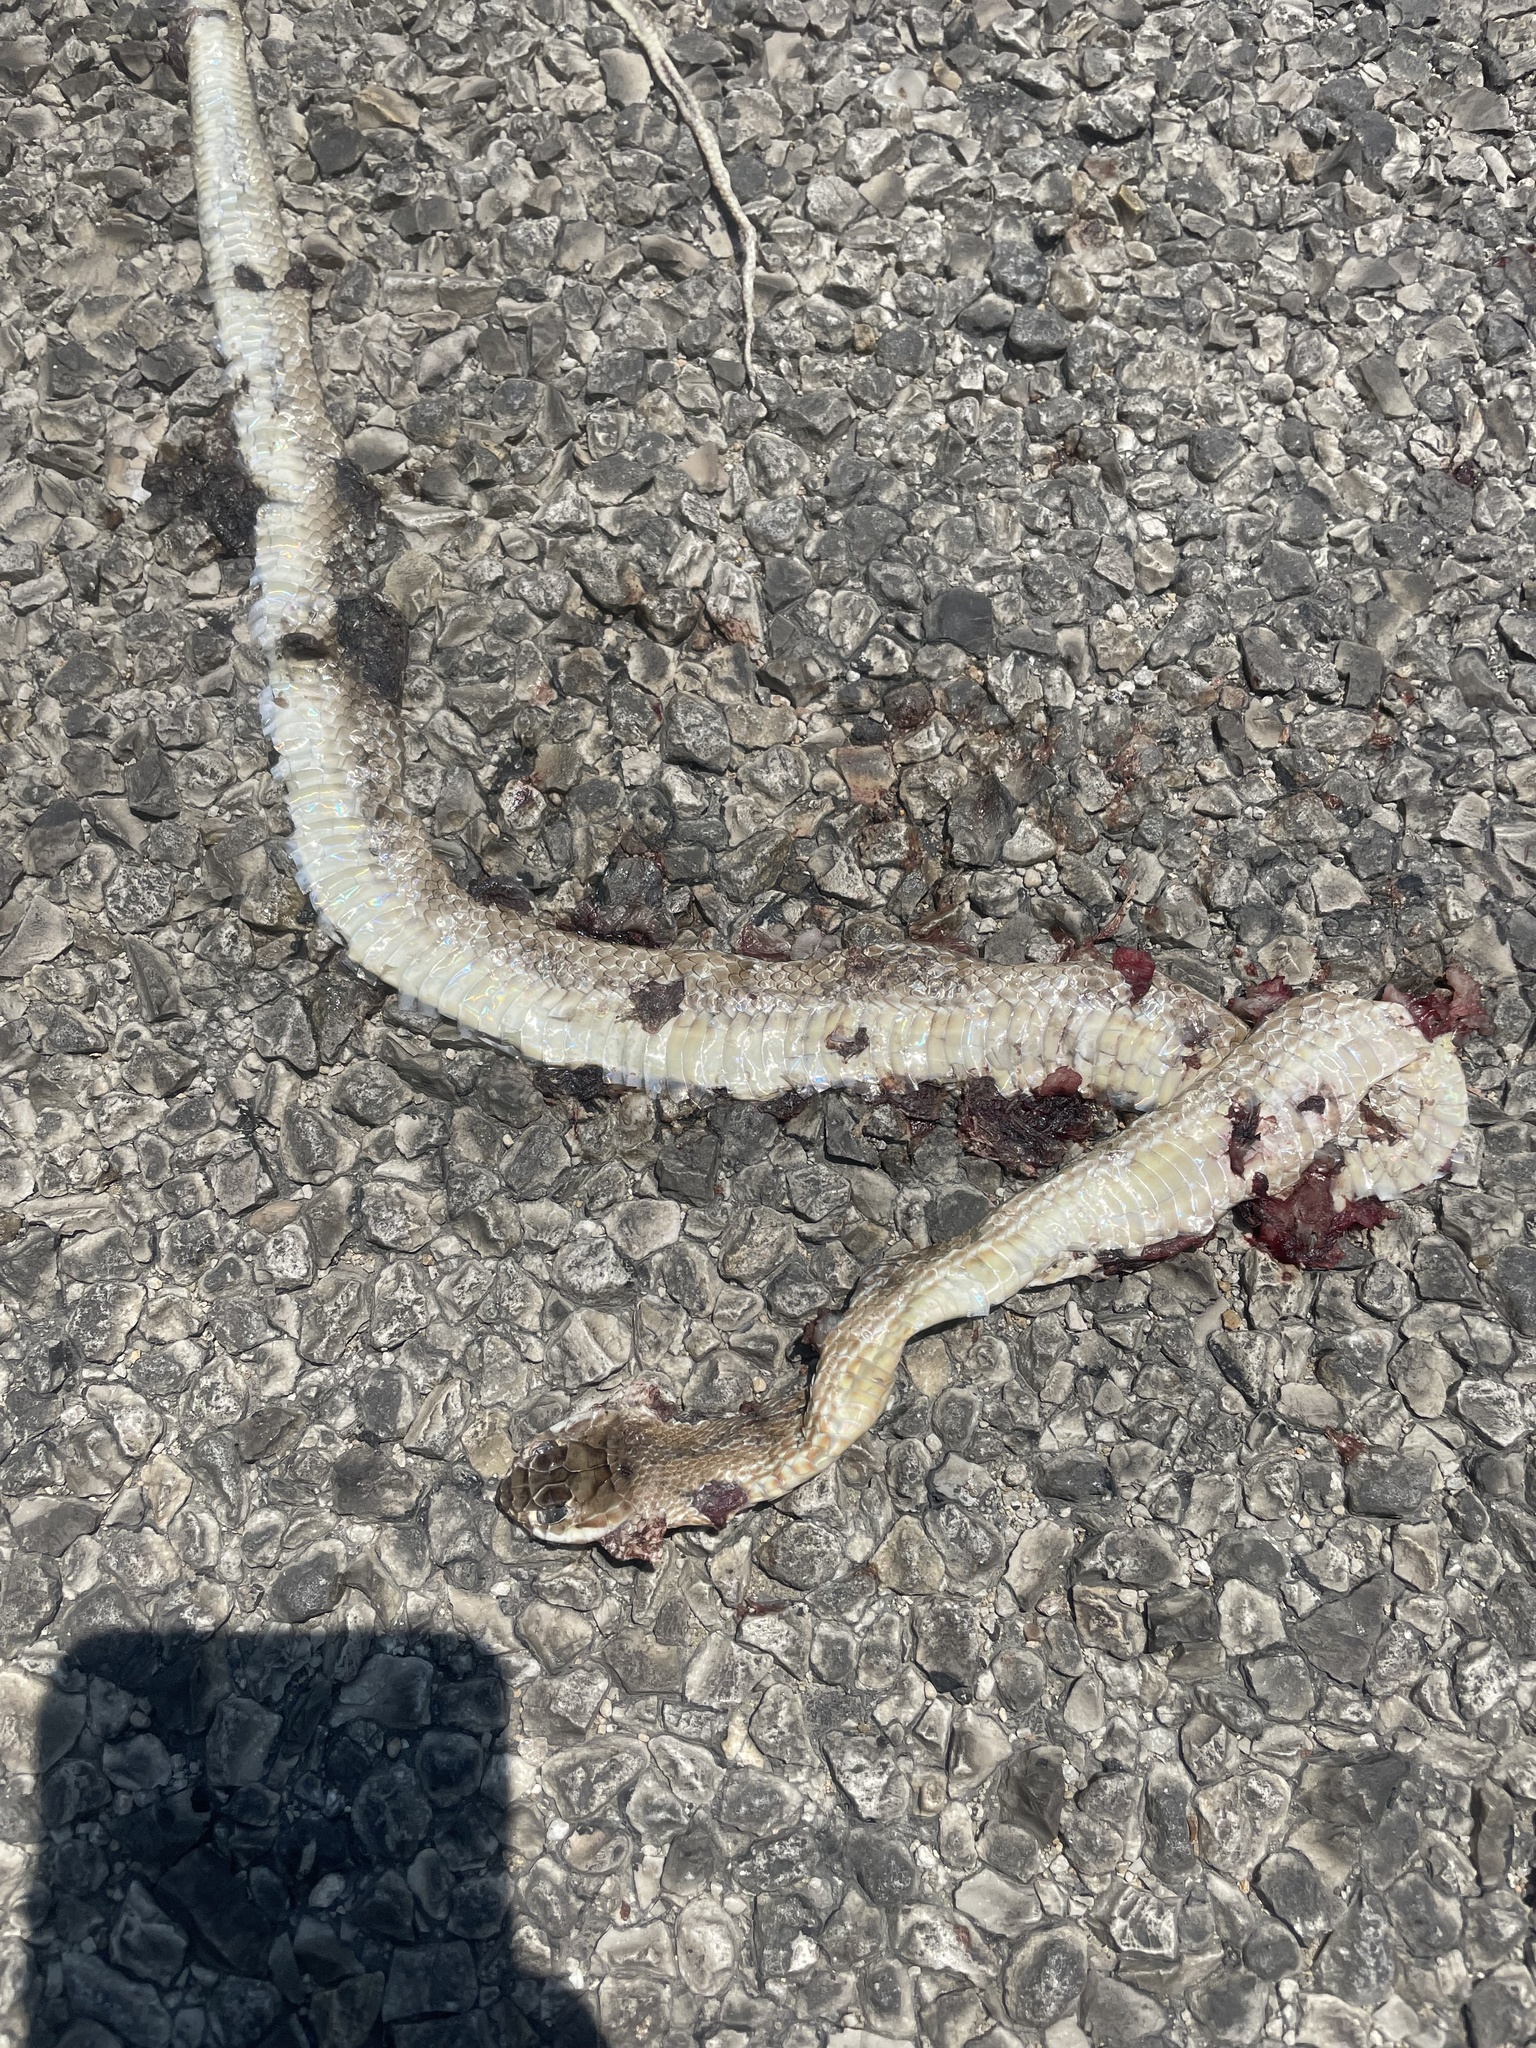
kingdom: Animalia
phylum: Chordata
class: Squamata
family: Colubridae
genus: Masticophis
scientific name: Masticophis flagellum
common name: Coachwhip
